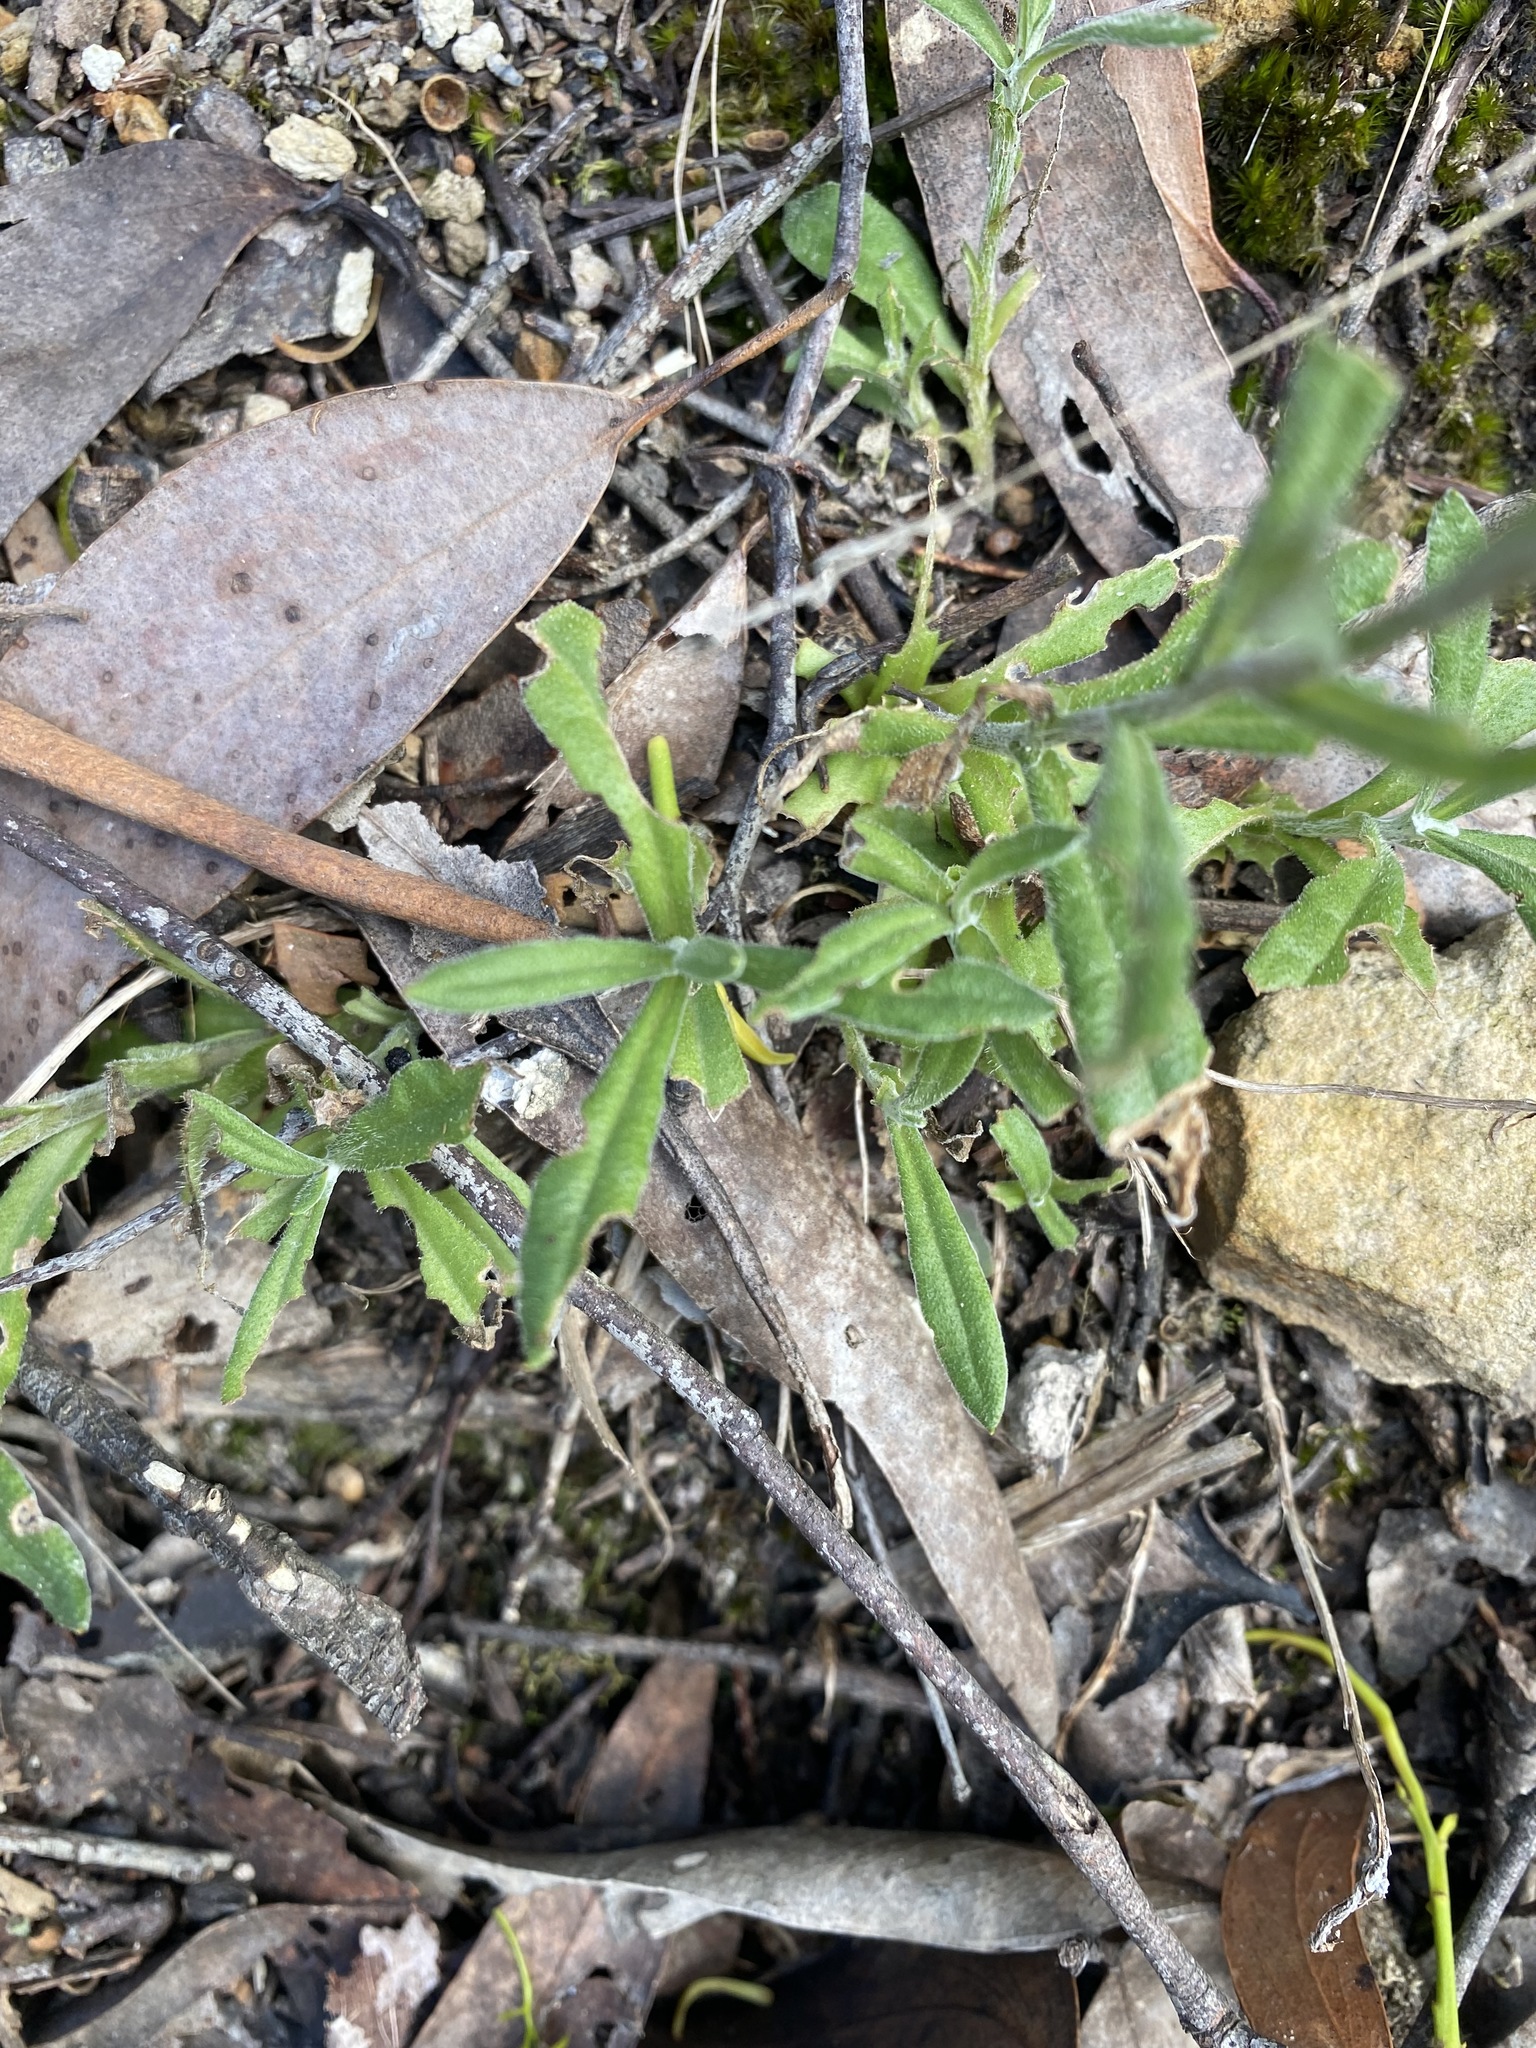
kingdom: Plantae
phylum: Tracheophyta
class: Magnoliopsida
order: Asterales
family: Asteraceae
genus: Coronidium
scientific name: Coronidium scorpioides
